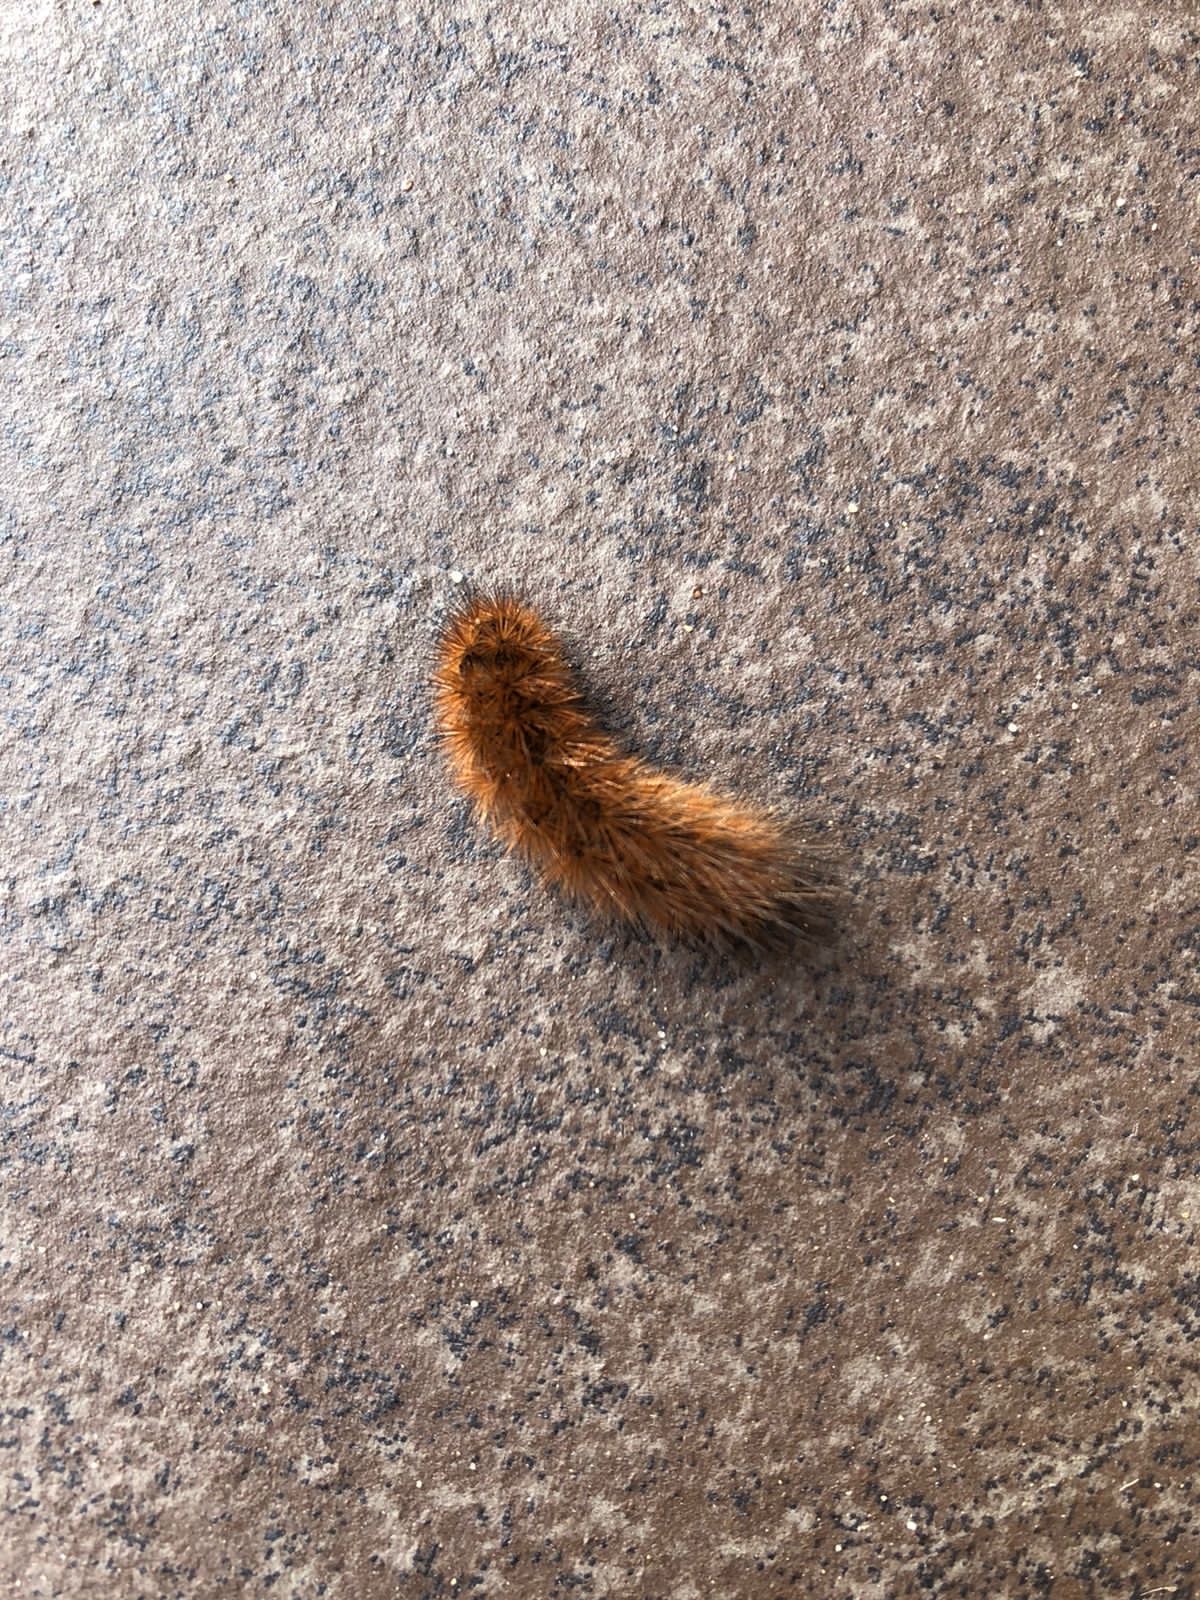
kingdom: Animalia
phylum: Arthropoda
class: Insecta
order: Lepidoptera
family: Erebidae
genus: Phragmatobia
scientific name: Phragmatobia fuliginosa
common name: Ruby tiger
